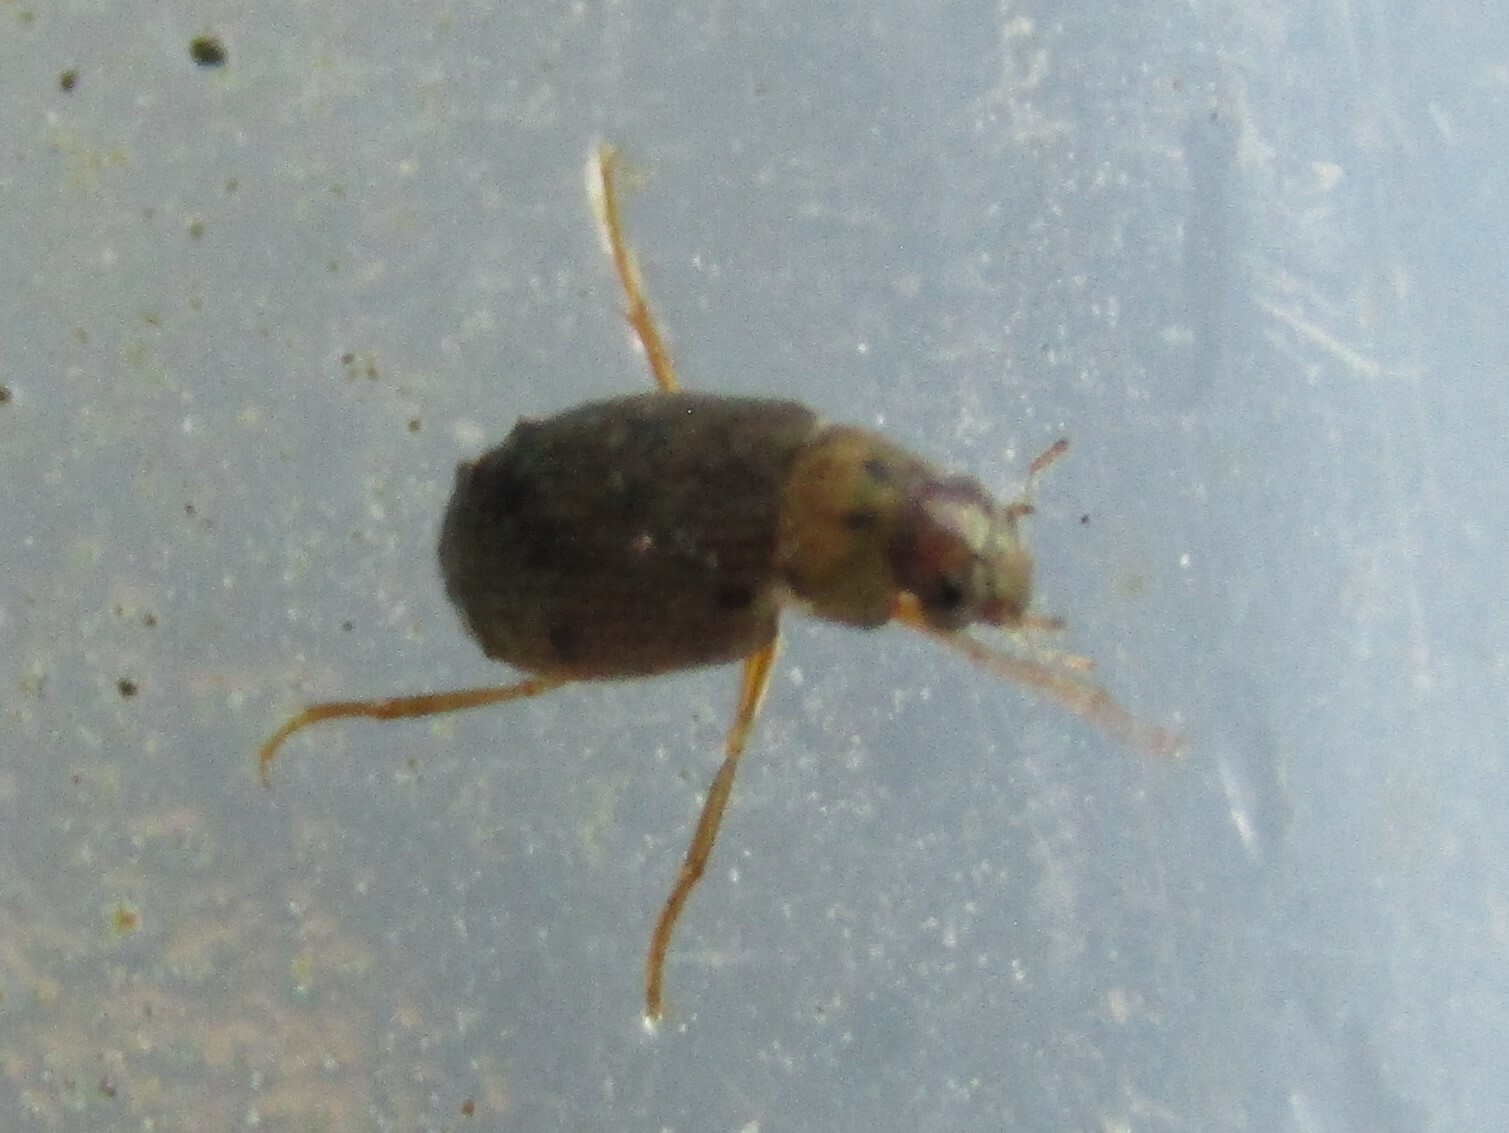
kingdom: Animalia
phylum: Arthropoda
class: Insecta
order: Coleoptera
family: Hydrophilidae
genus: Berosus
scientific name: Berosus
